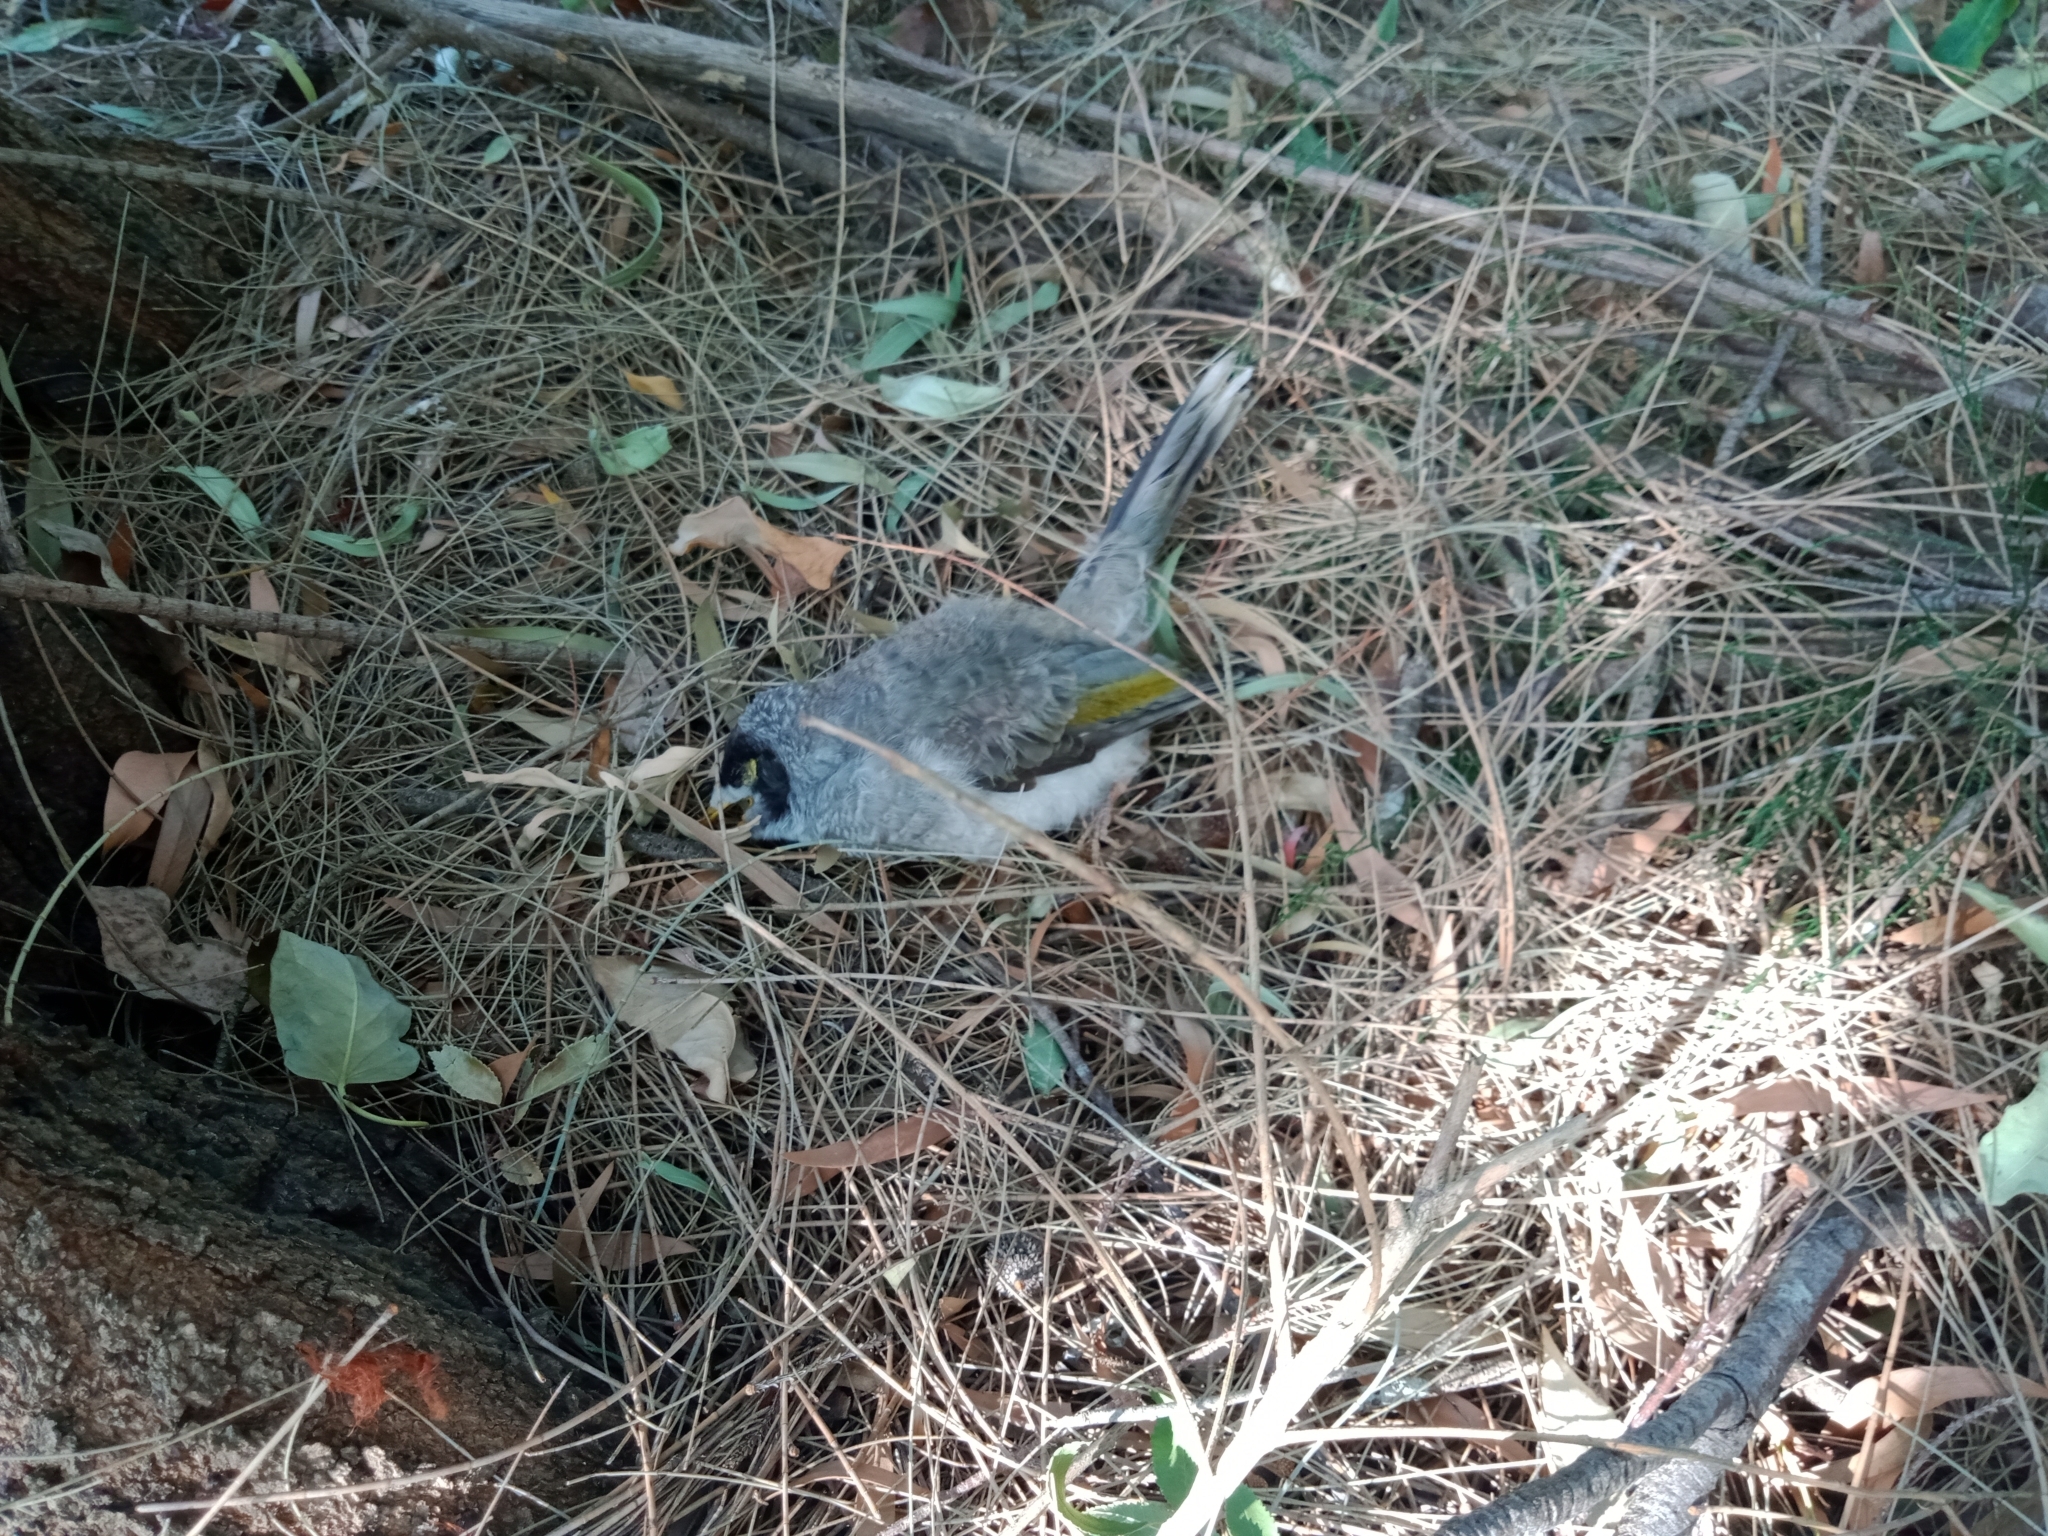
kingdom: Animalia
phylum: Chordata
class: Aves
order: Passeriformes
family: Meliphagidae
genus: Manorina
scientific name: Manorina melanocephala
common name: Noisy miner
